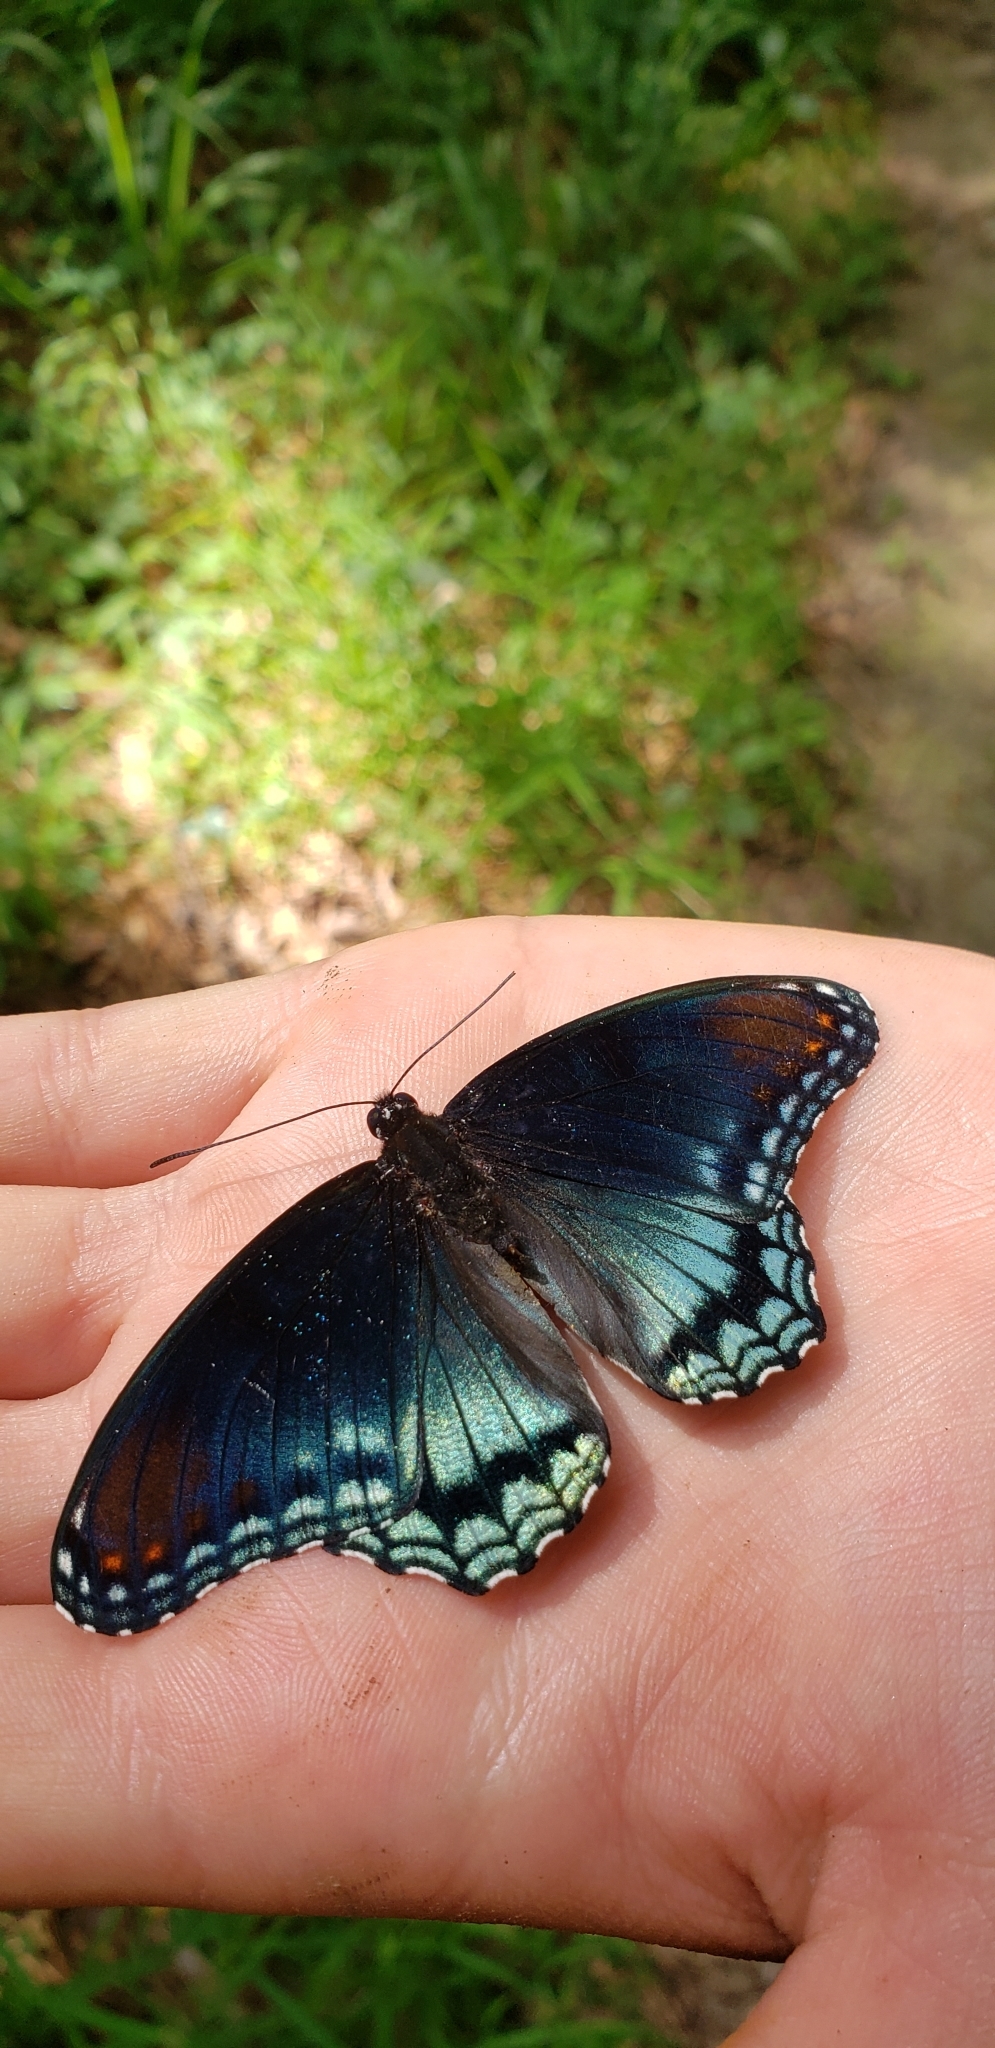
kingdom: Animalia
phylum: Arthropoda
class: Insecta
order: Lepidoptera
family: Nymphalidae
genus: Limenitis
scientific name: Limenitis arthemis
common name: Red-spotted admiral
